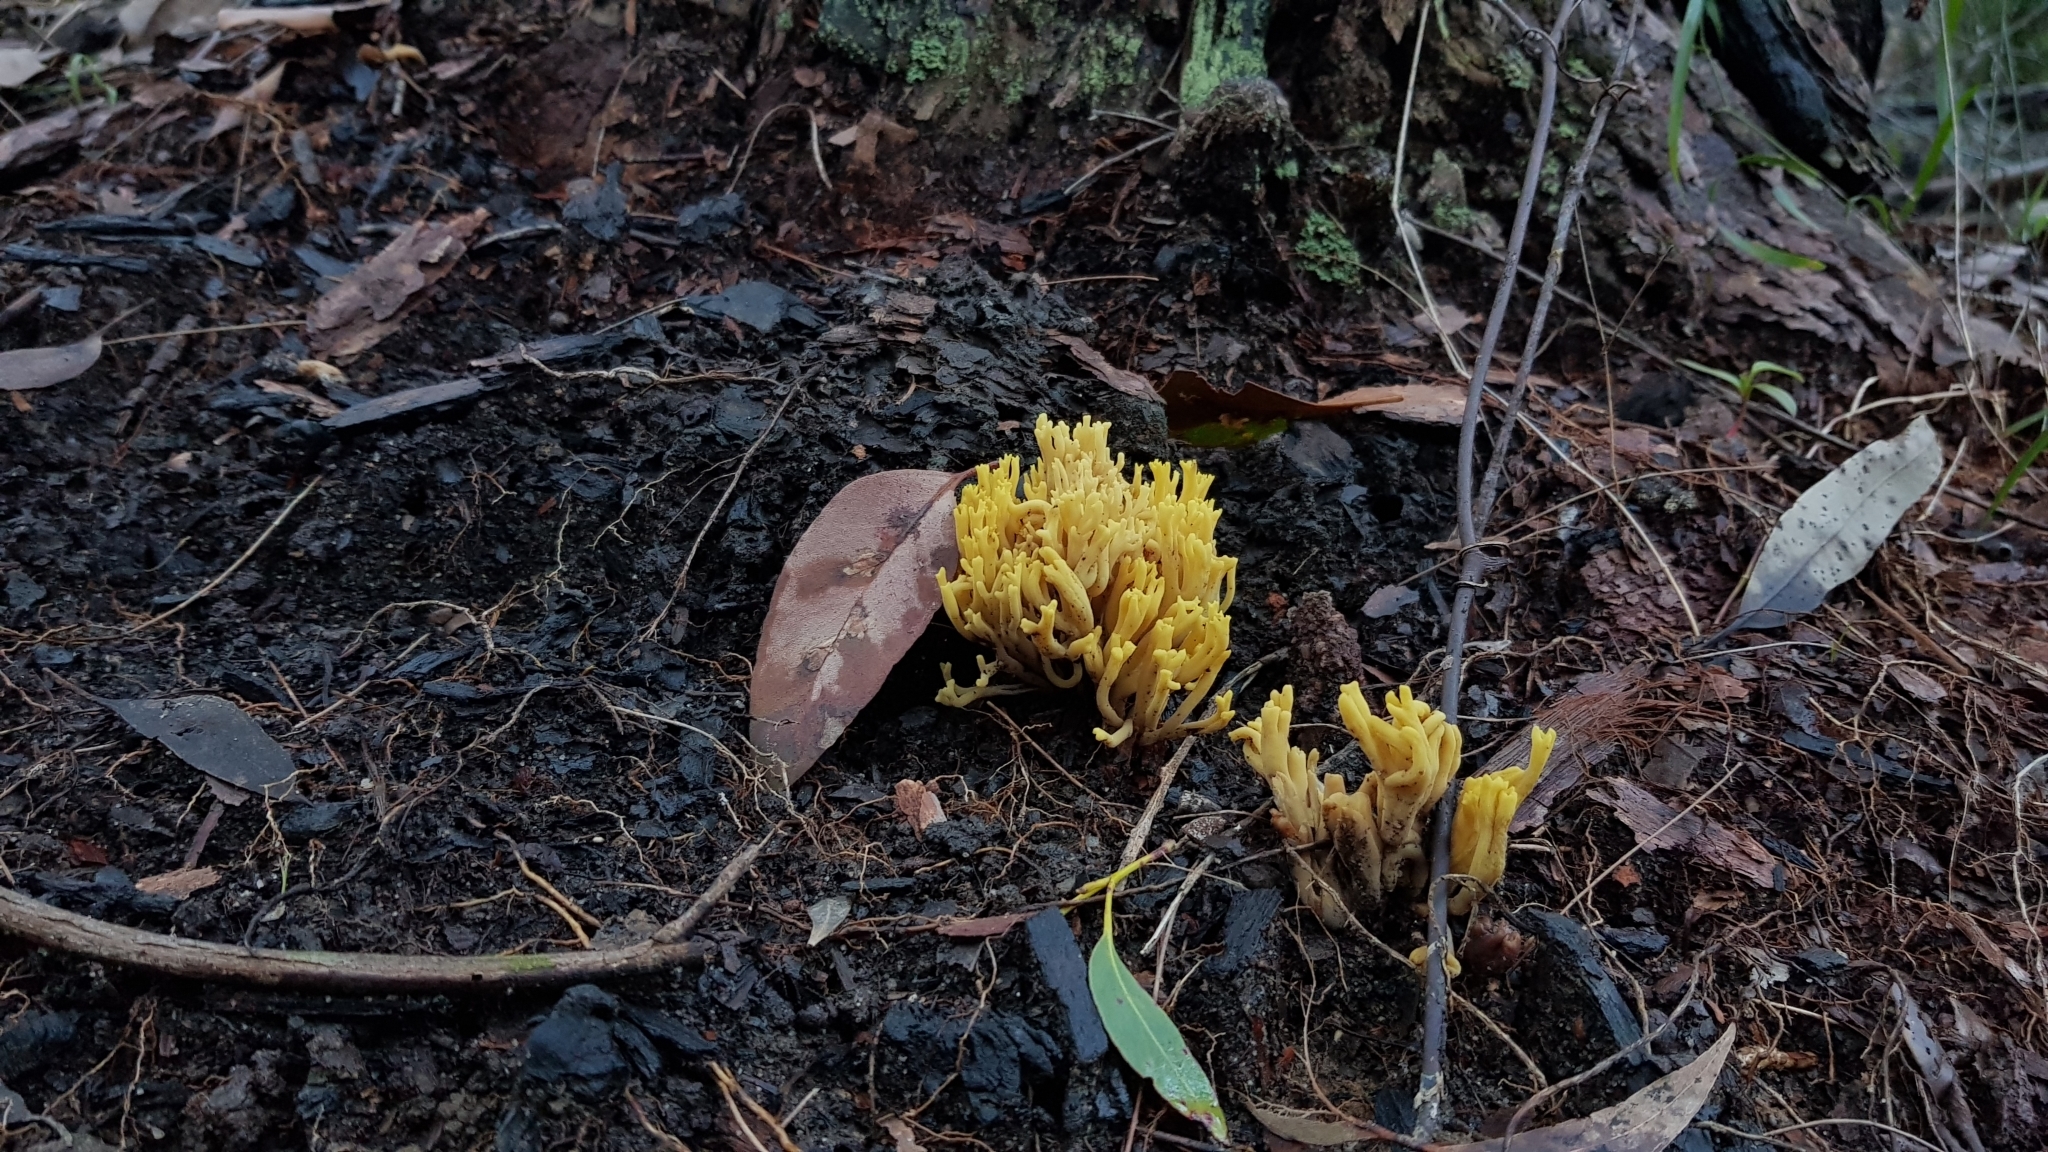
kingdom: Fungi
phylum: Basidiomycota
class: Agaricomycetes
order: Gomphales
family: Gomphaceae
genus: Ramaria
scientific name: Ramaria lorithamnus
